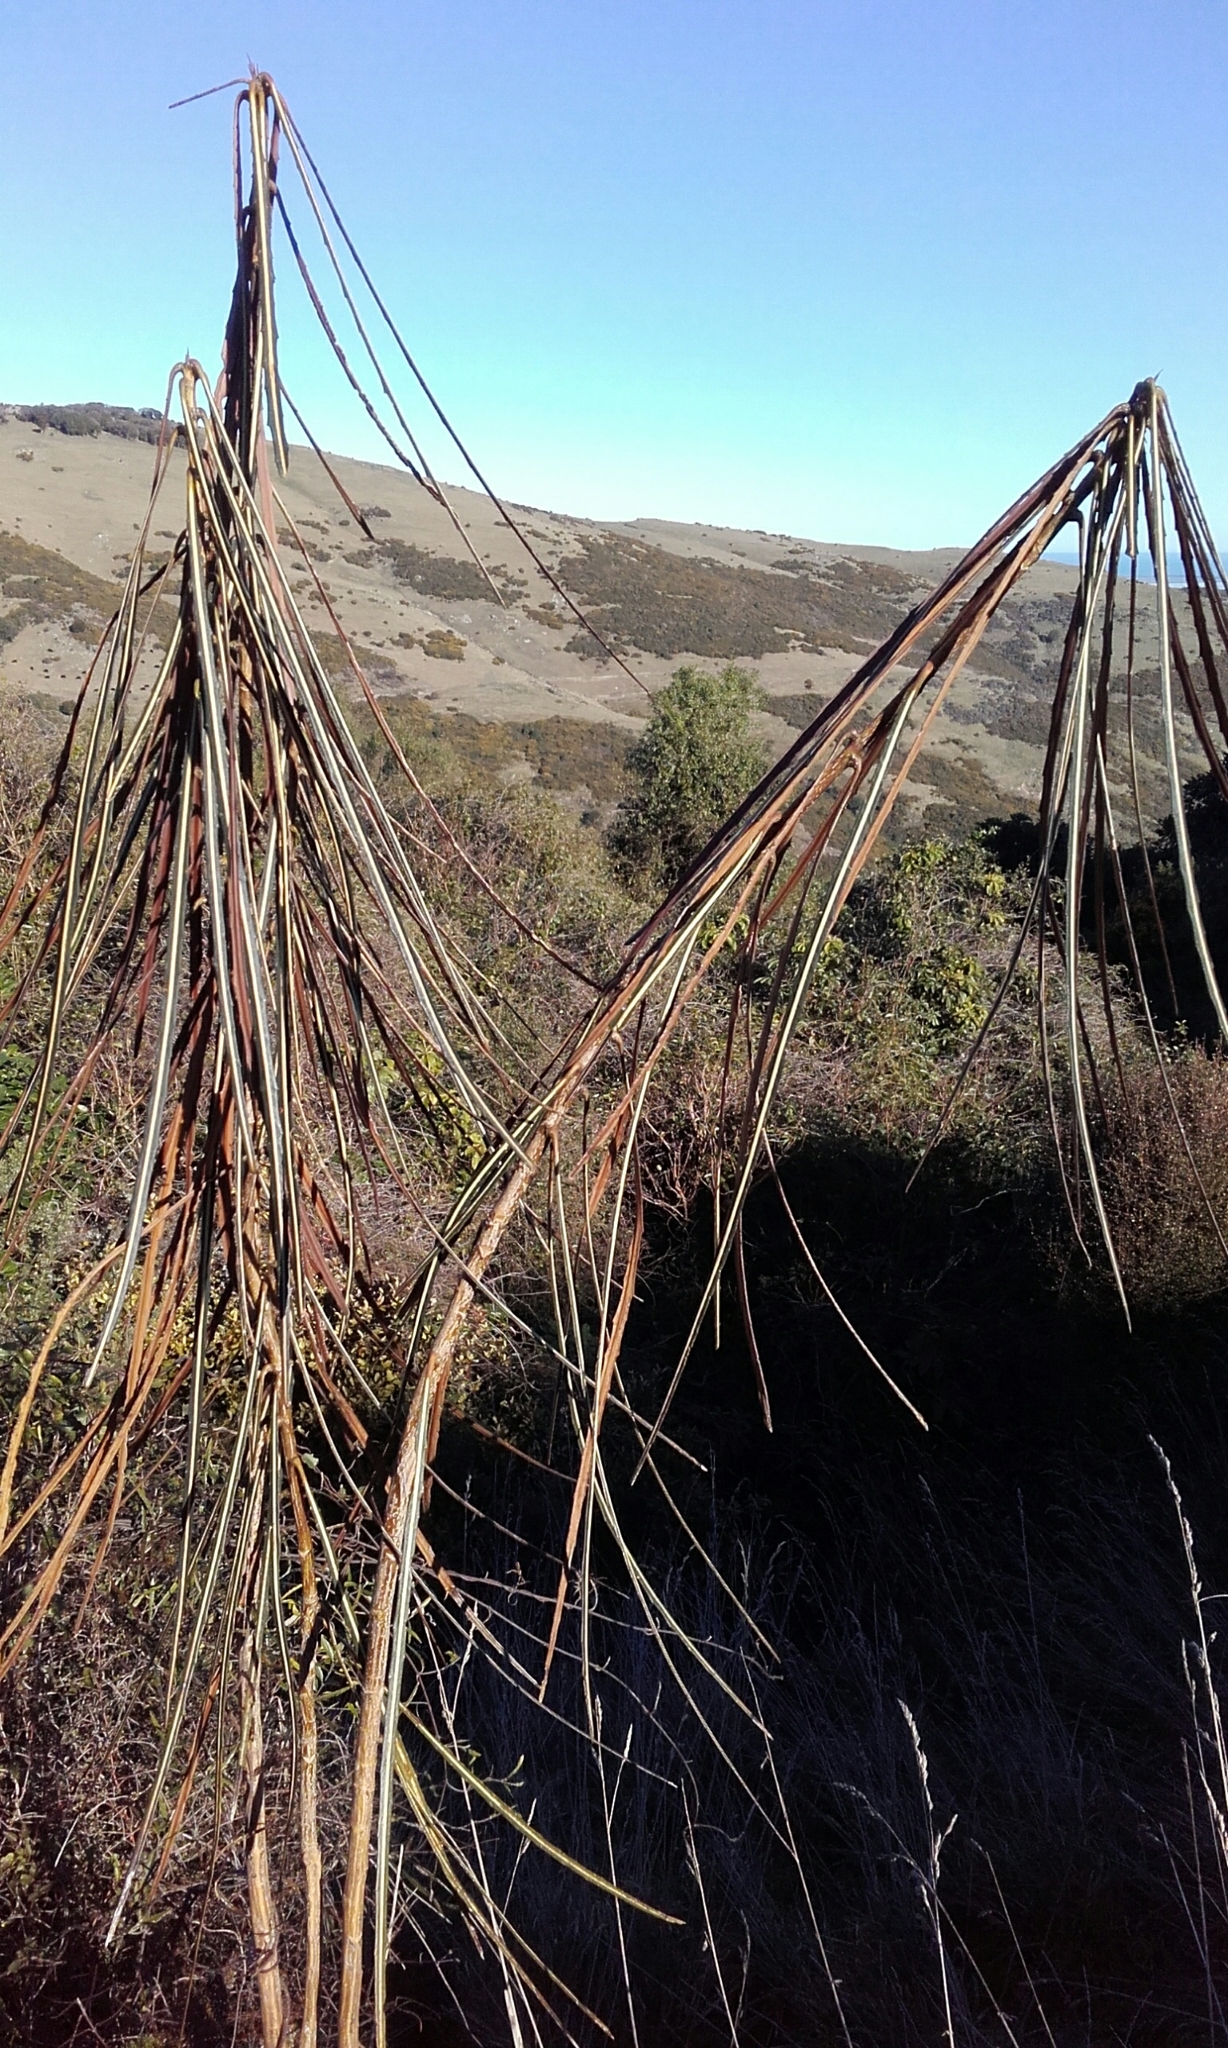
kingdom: Plantae
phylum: Tracheophyta
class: Magnoliopsida
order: Apiales
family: Araliaceae
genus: Pseudopanax
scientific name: Pseudopanax crassifolius
